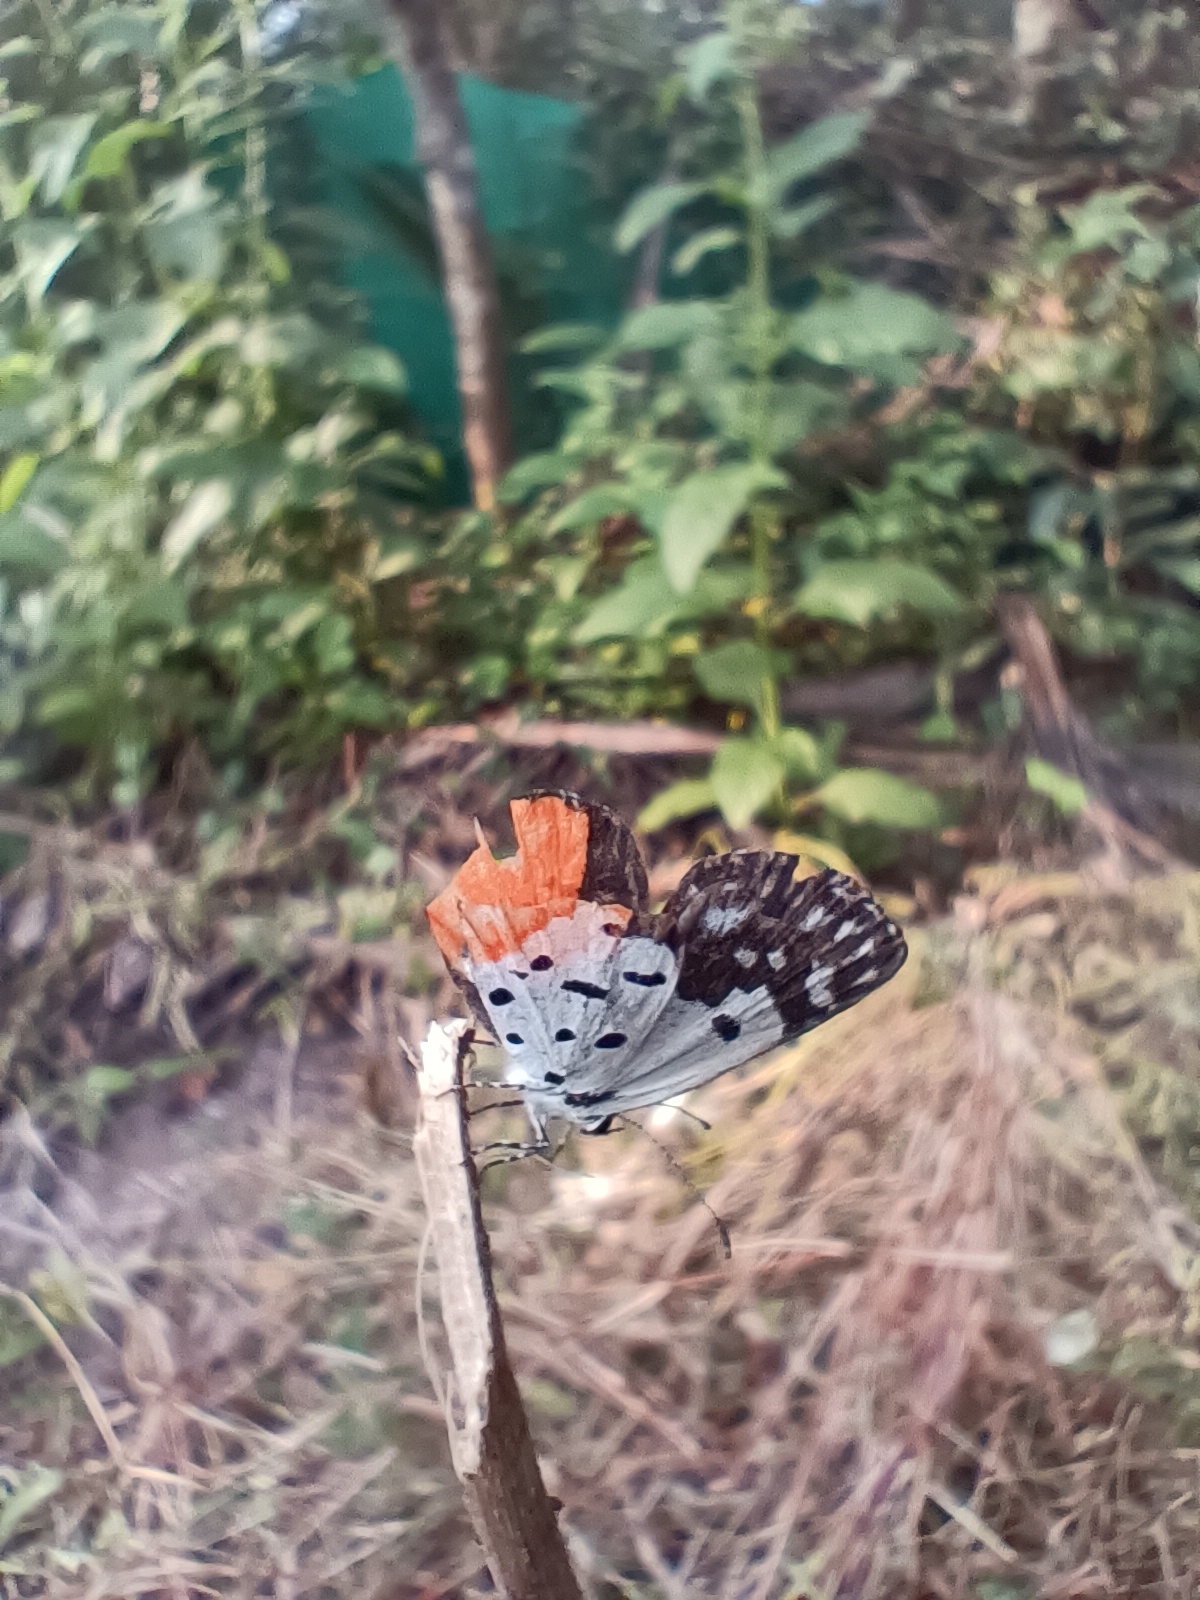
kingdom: Animalia
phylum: Arthropoda
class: Insecta
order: Lepidoptera
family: Lycaenidae
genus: Talicada
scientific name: Talicada nyseus
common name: Red pierrot
